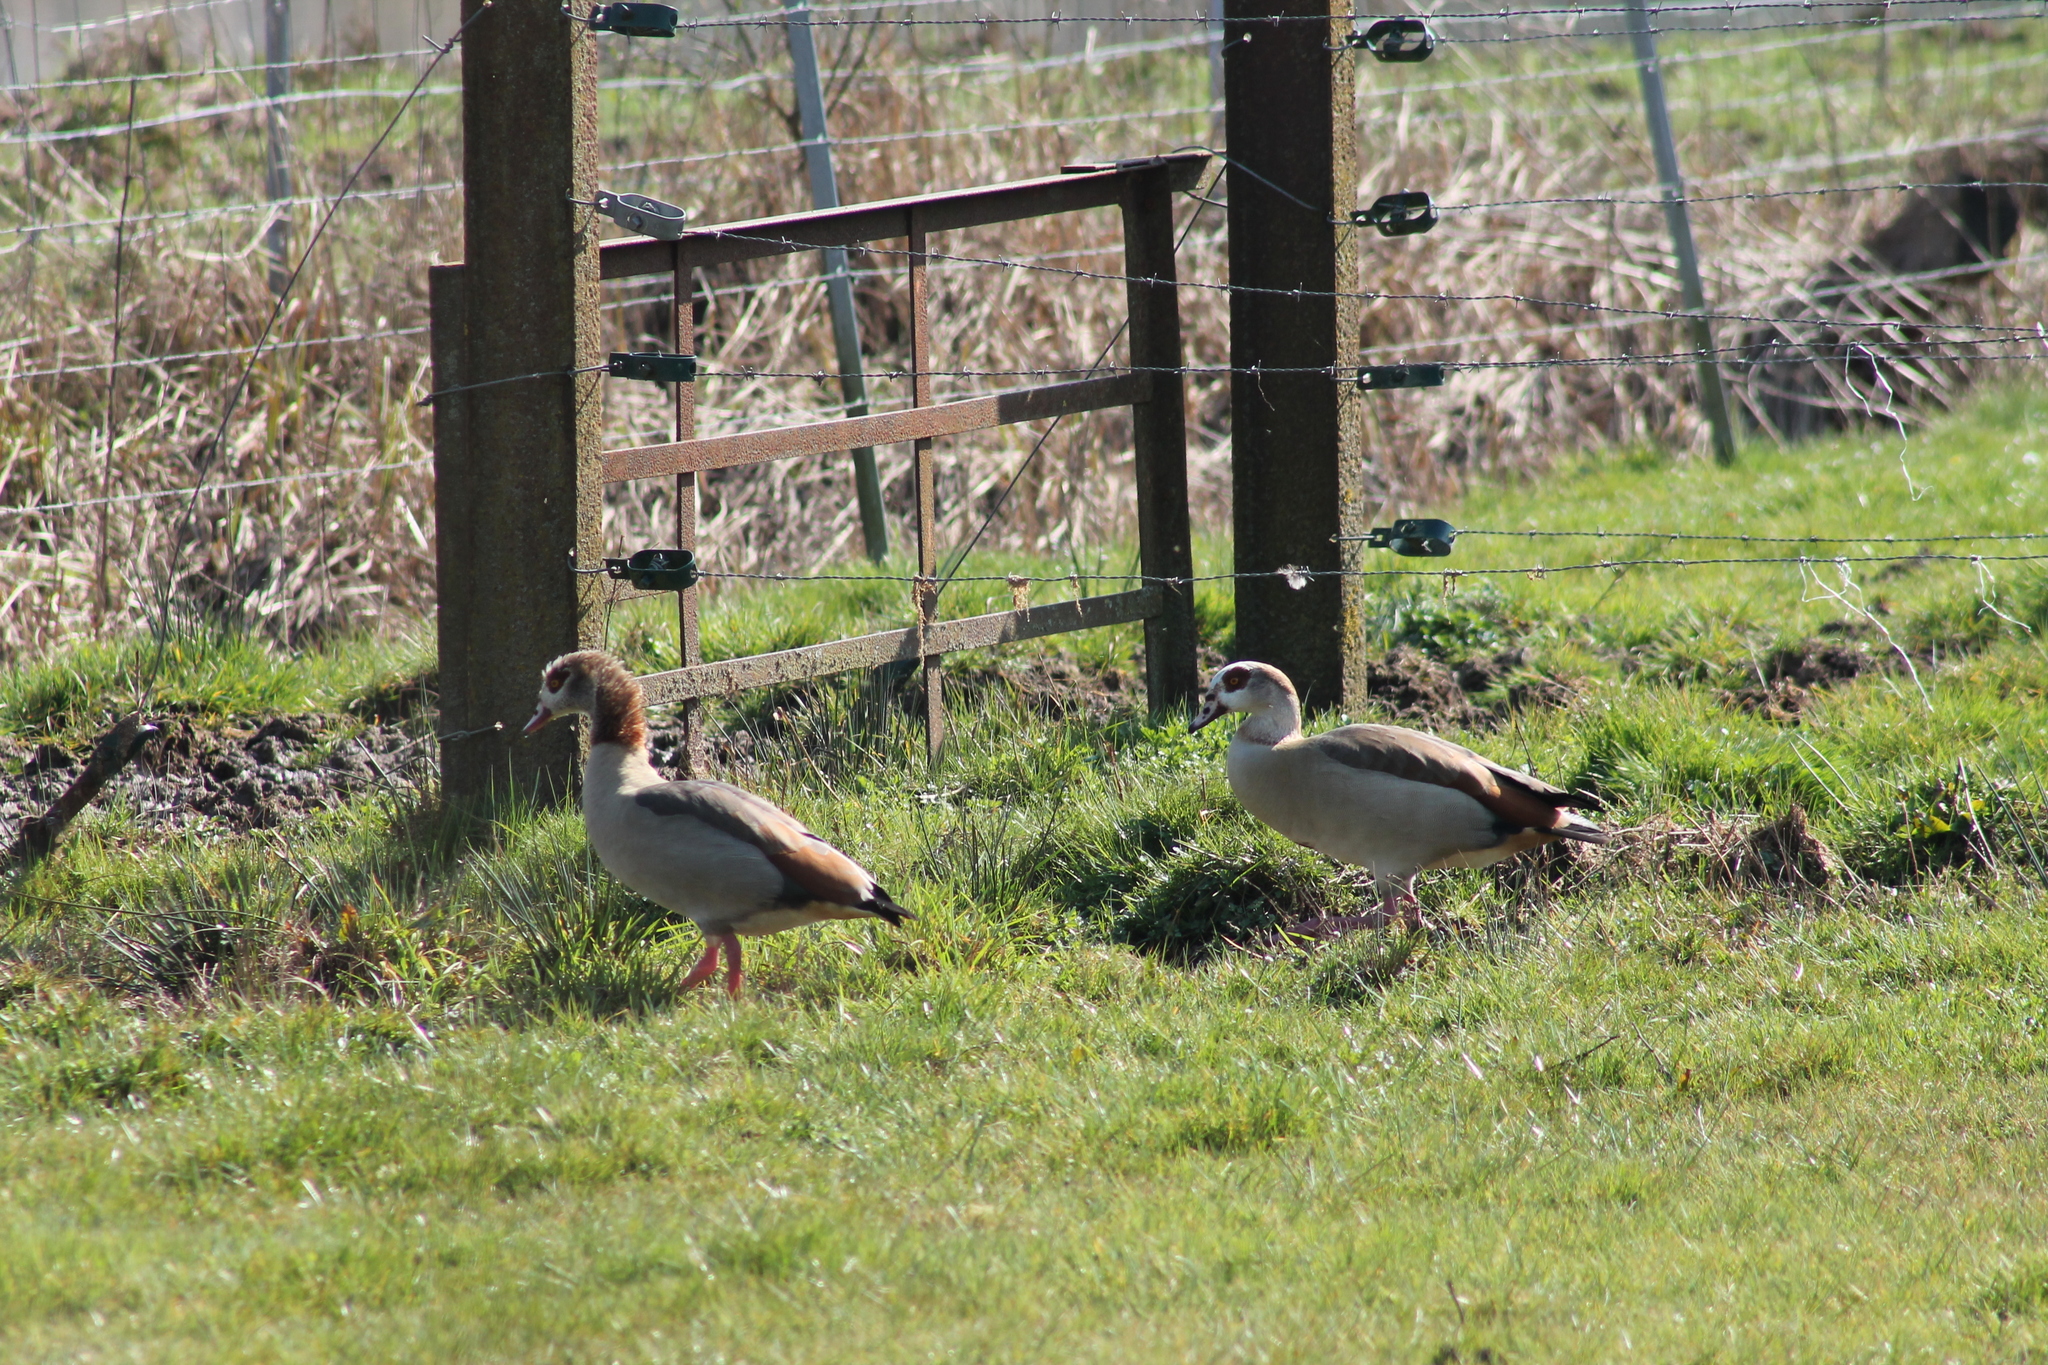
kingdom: Animalia
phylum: Chordata
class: Aves
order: Anseriformes
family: Anatidae
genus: Alopochen
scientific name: Alopochen aegyptiaca
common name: Egyptian goose
